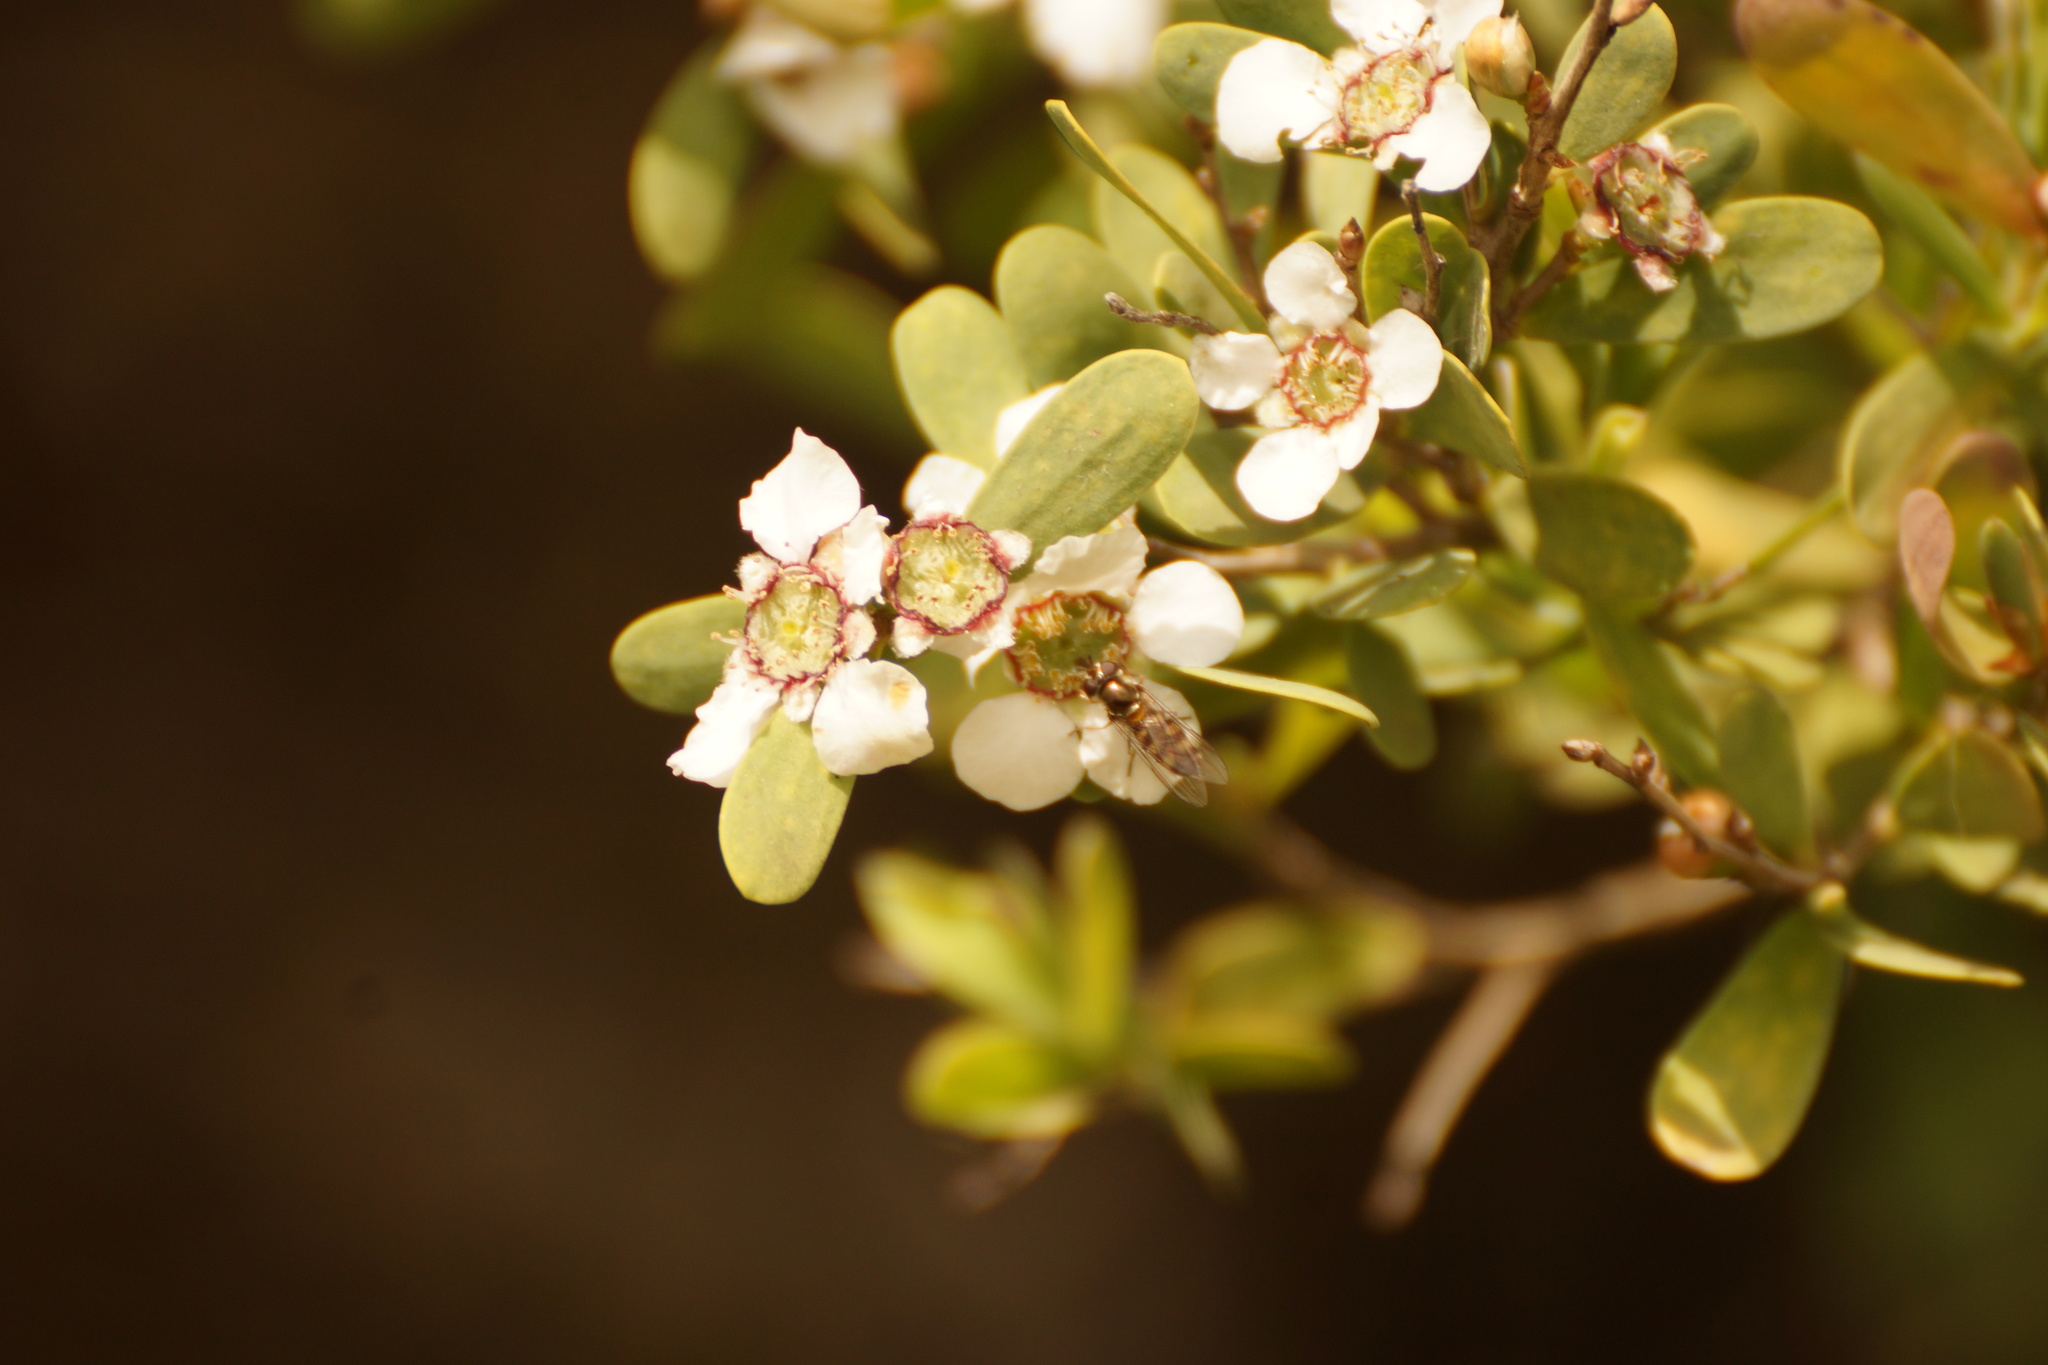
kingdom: Plantae
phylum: Tracheophyta
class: Magnoliopsida
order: Myrtales
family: Myrtaceae
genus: Leptospermum
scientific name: Leptospermum laevigatum
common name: Australian teatree
